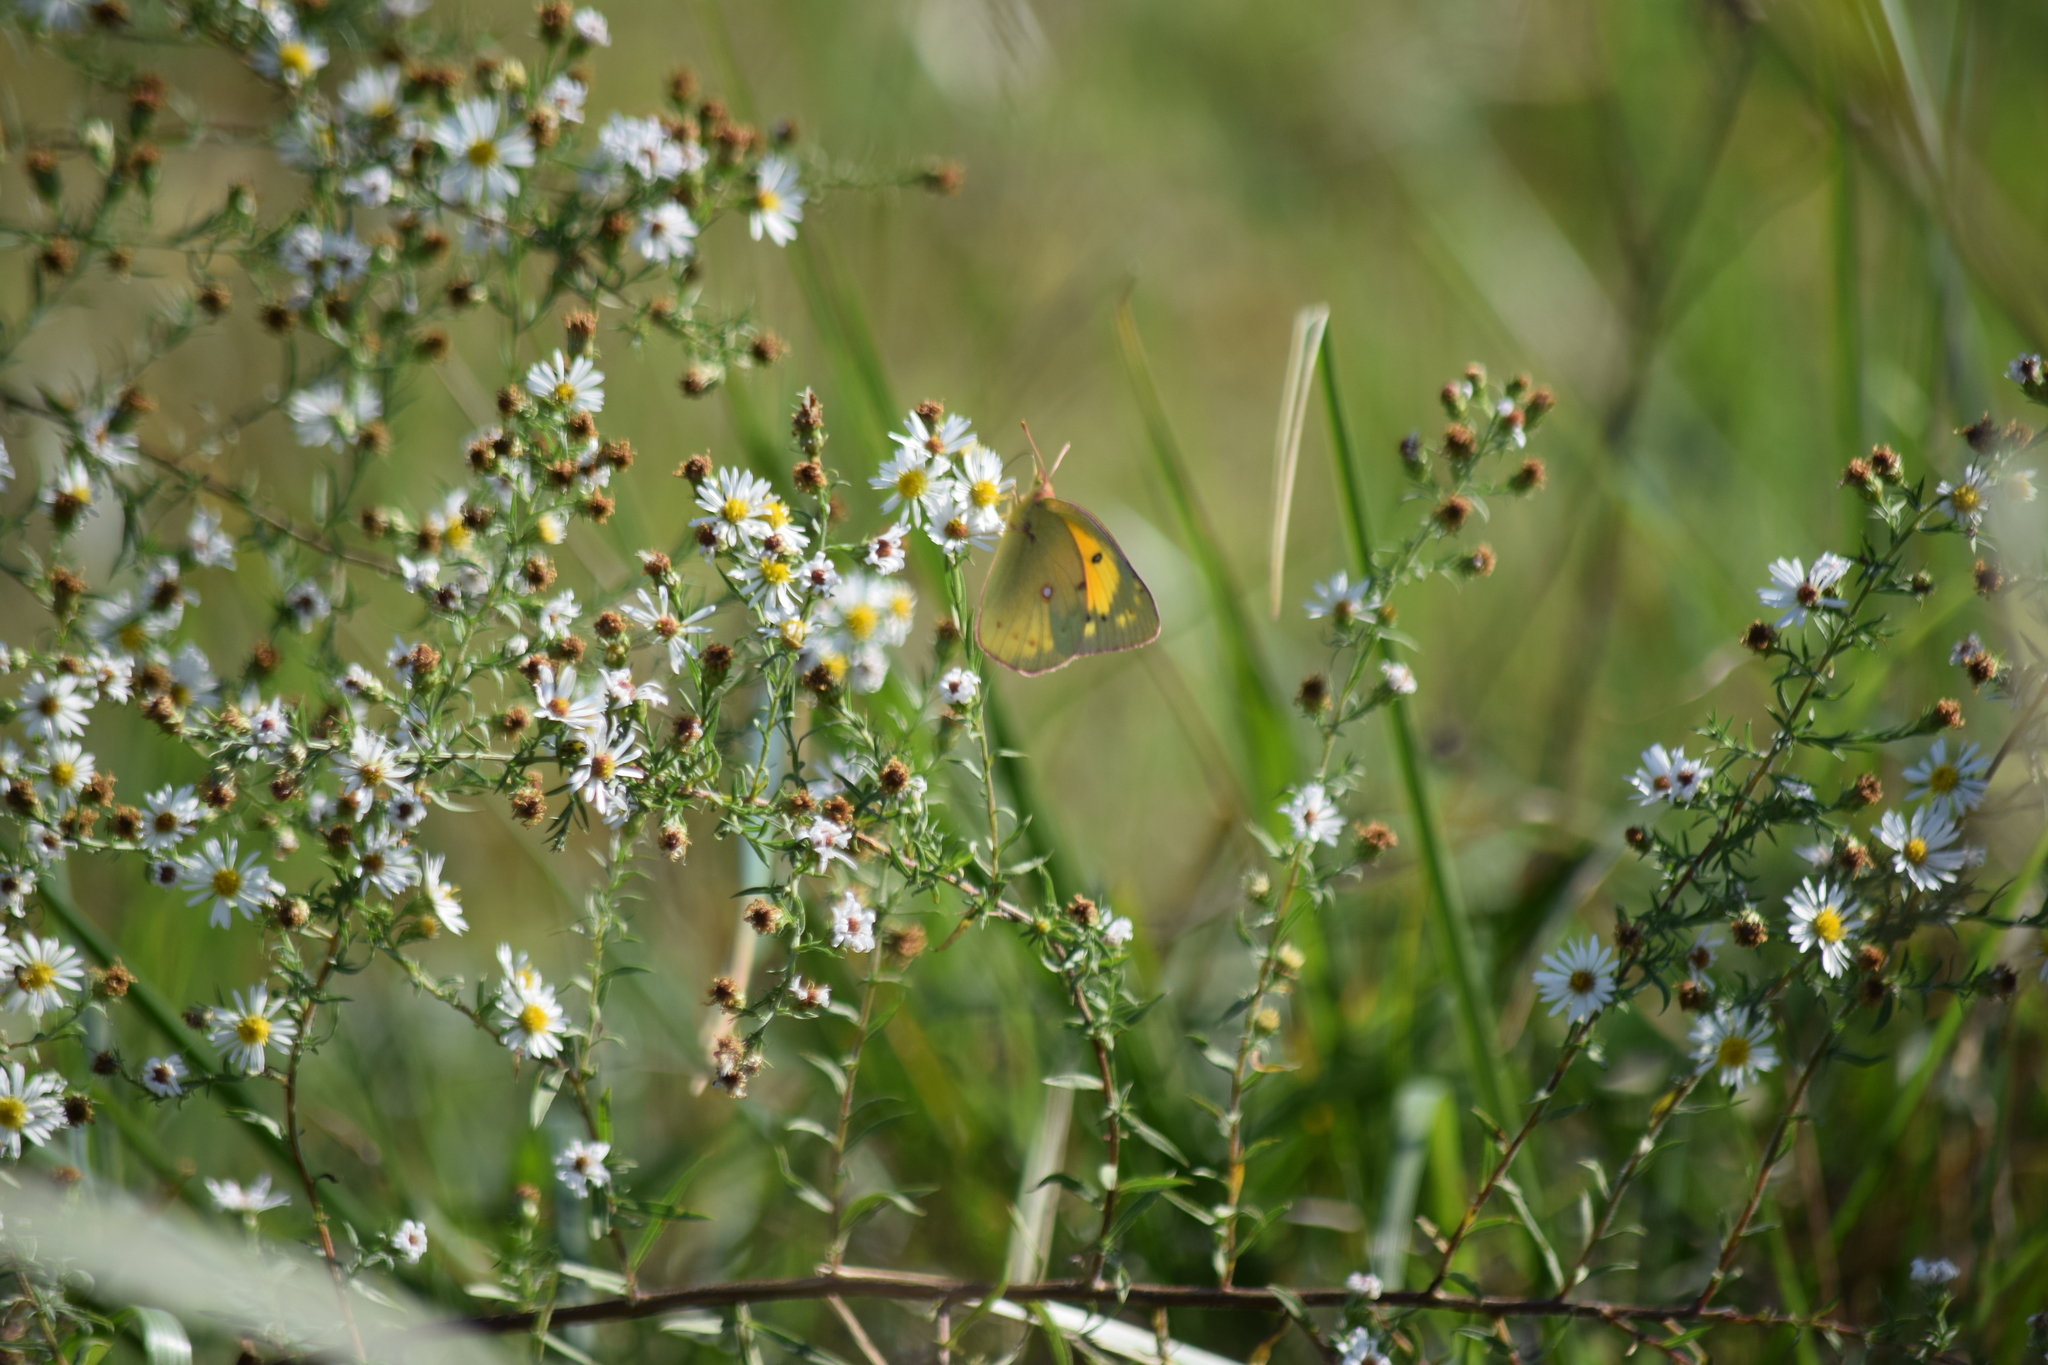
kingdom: Animalia
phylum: Arthropoda
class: Insecta
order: Lepidoptera
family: Pieridae
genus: Colias
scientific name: Colias eurytheme
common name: Alfalfa butterfly
